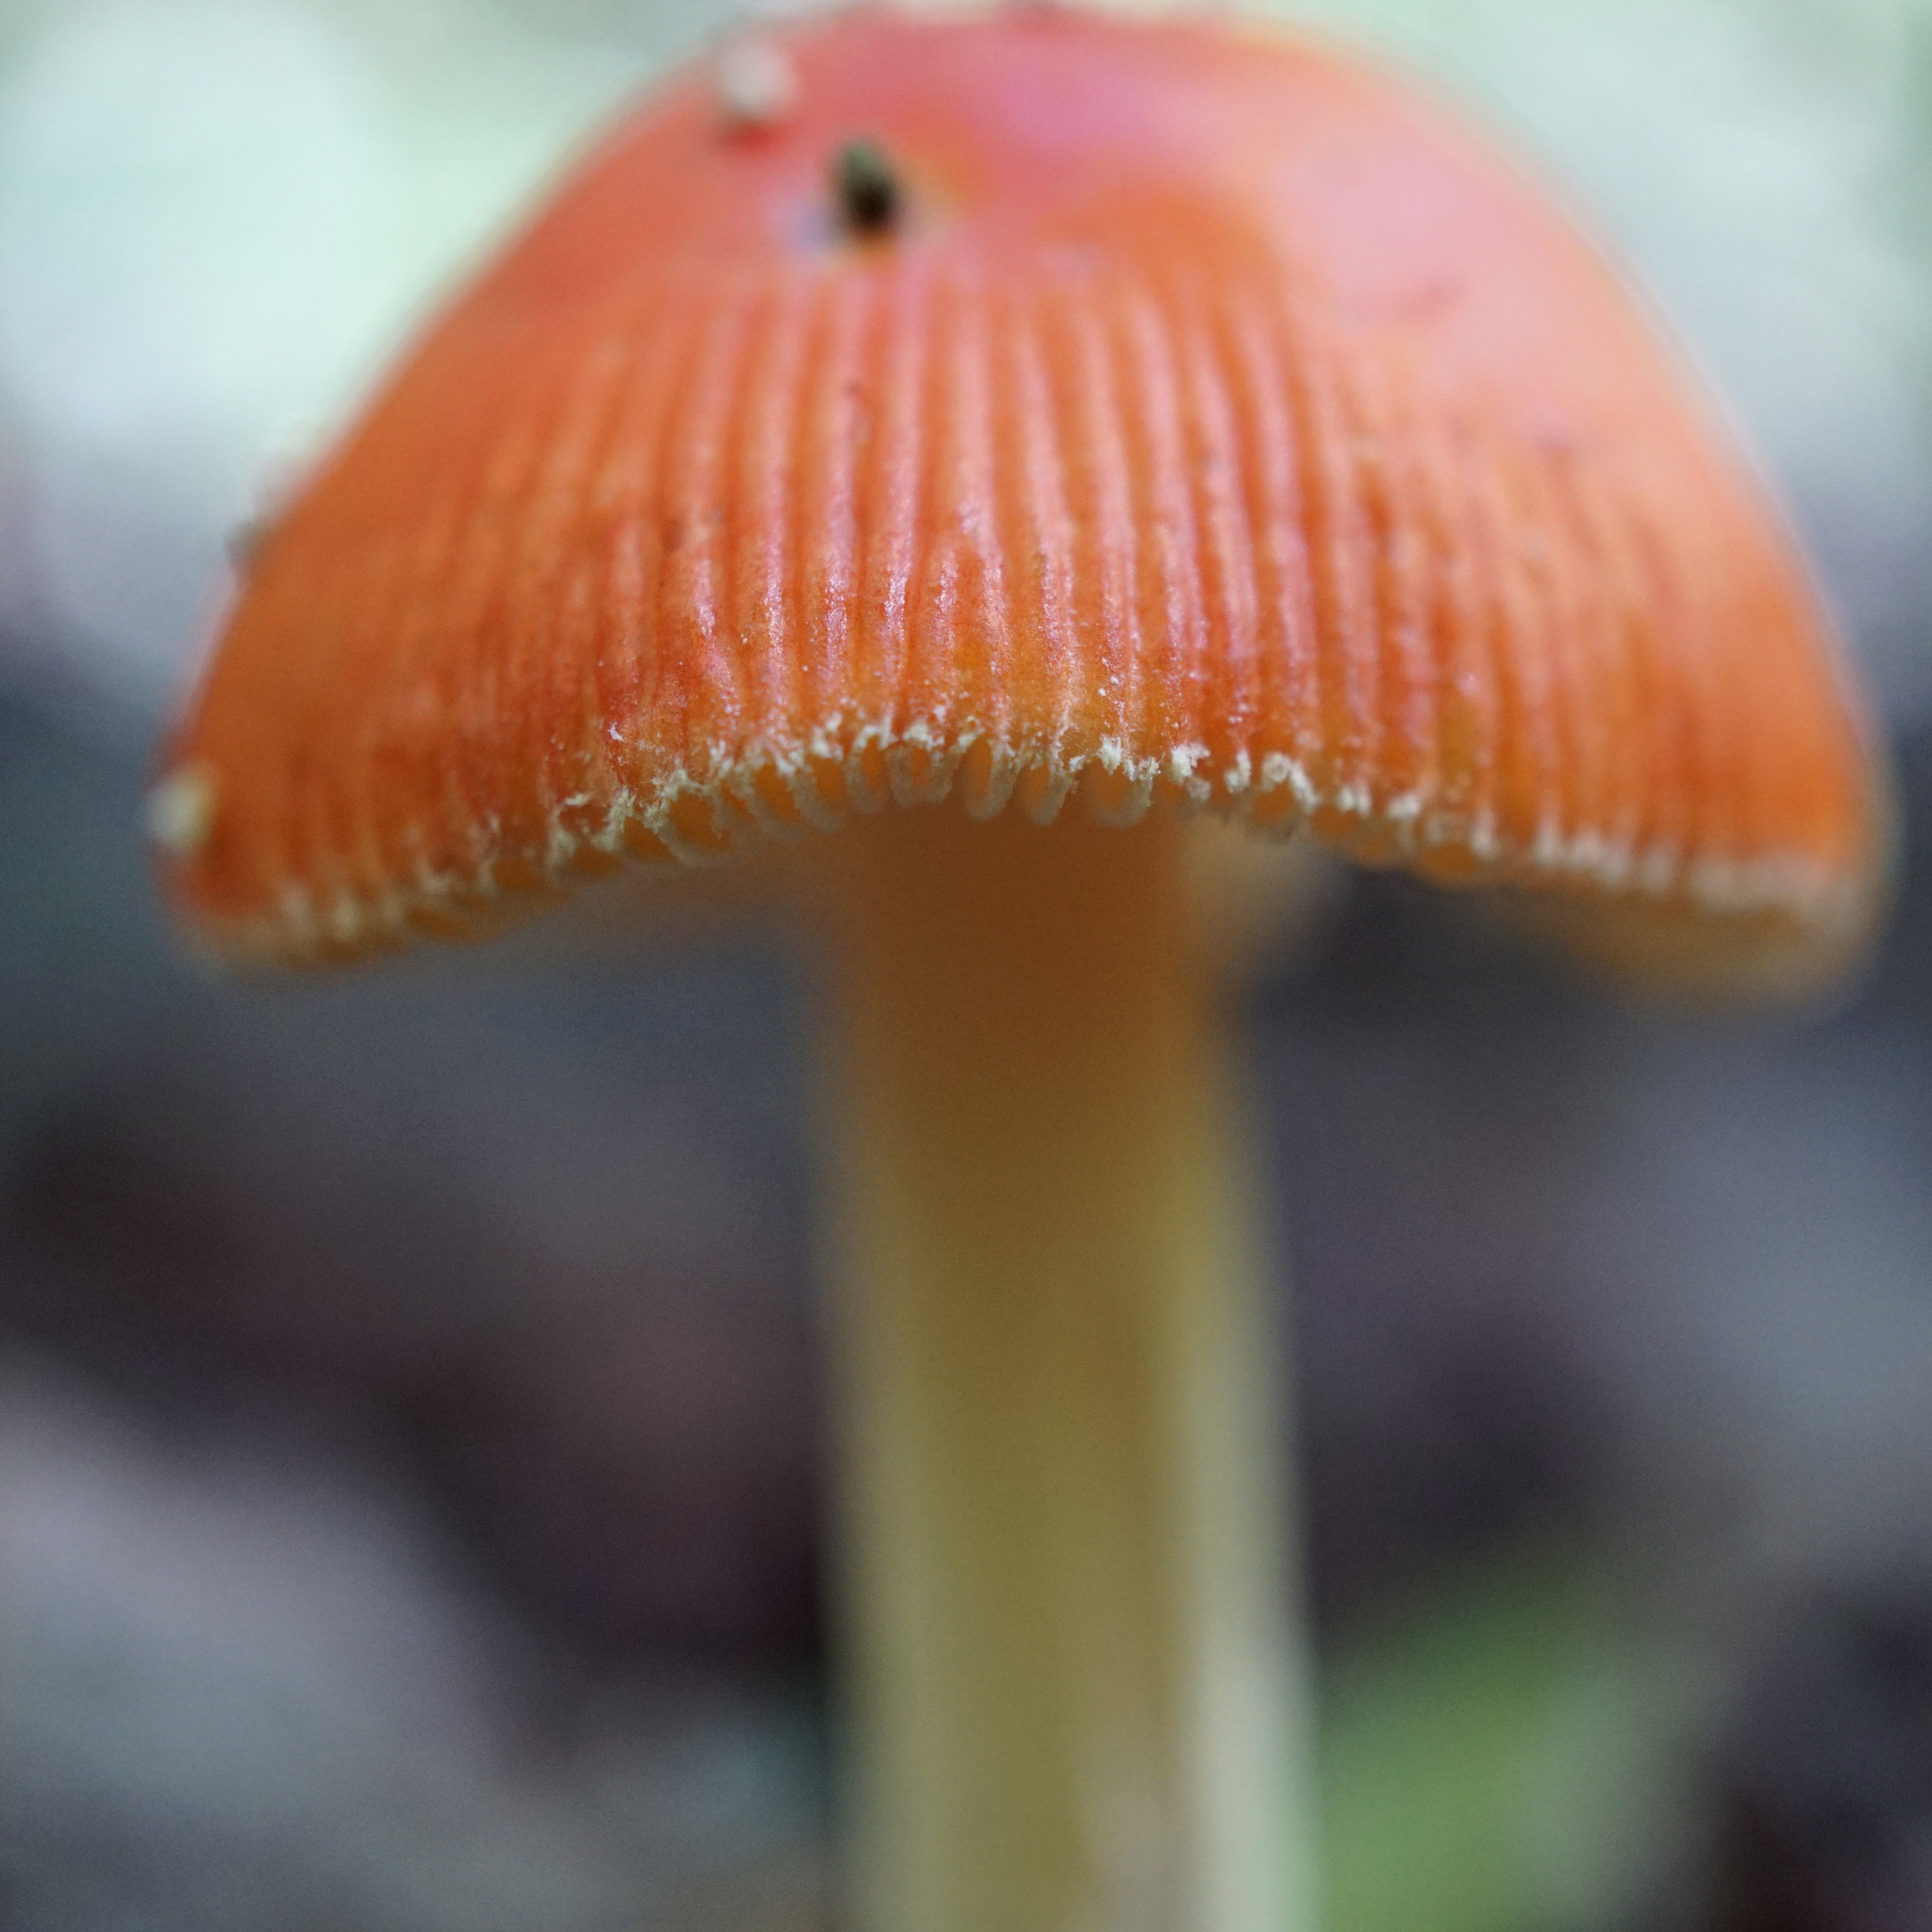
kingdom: Fungi
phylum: Basidiomycota
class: Agaricomycetes
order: Agaricales
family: Amanitaceae
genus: Amanita
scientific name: Amanita parcivolvata
